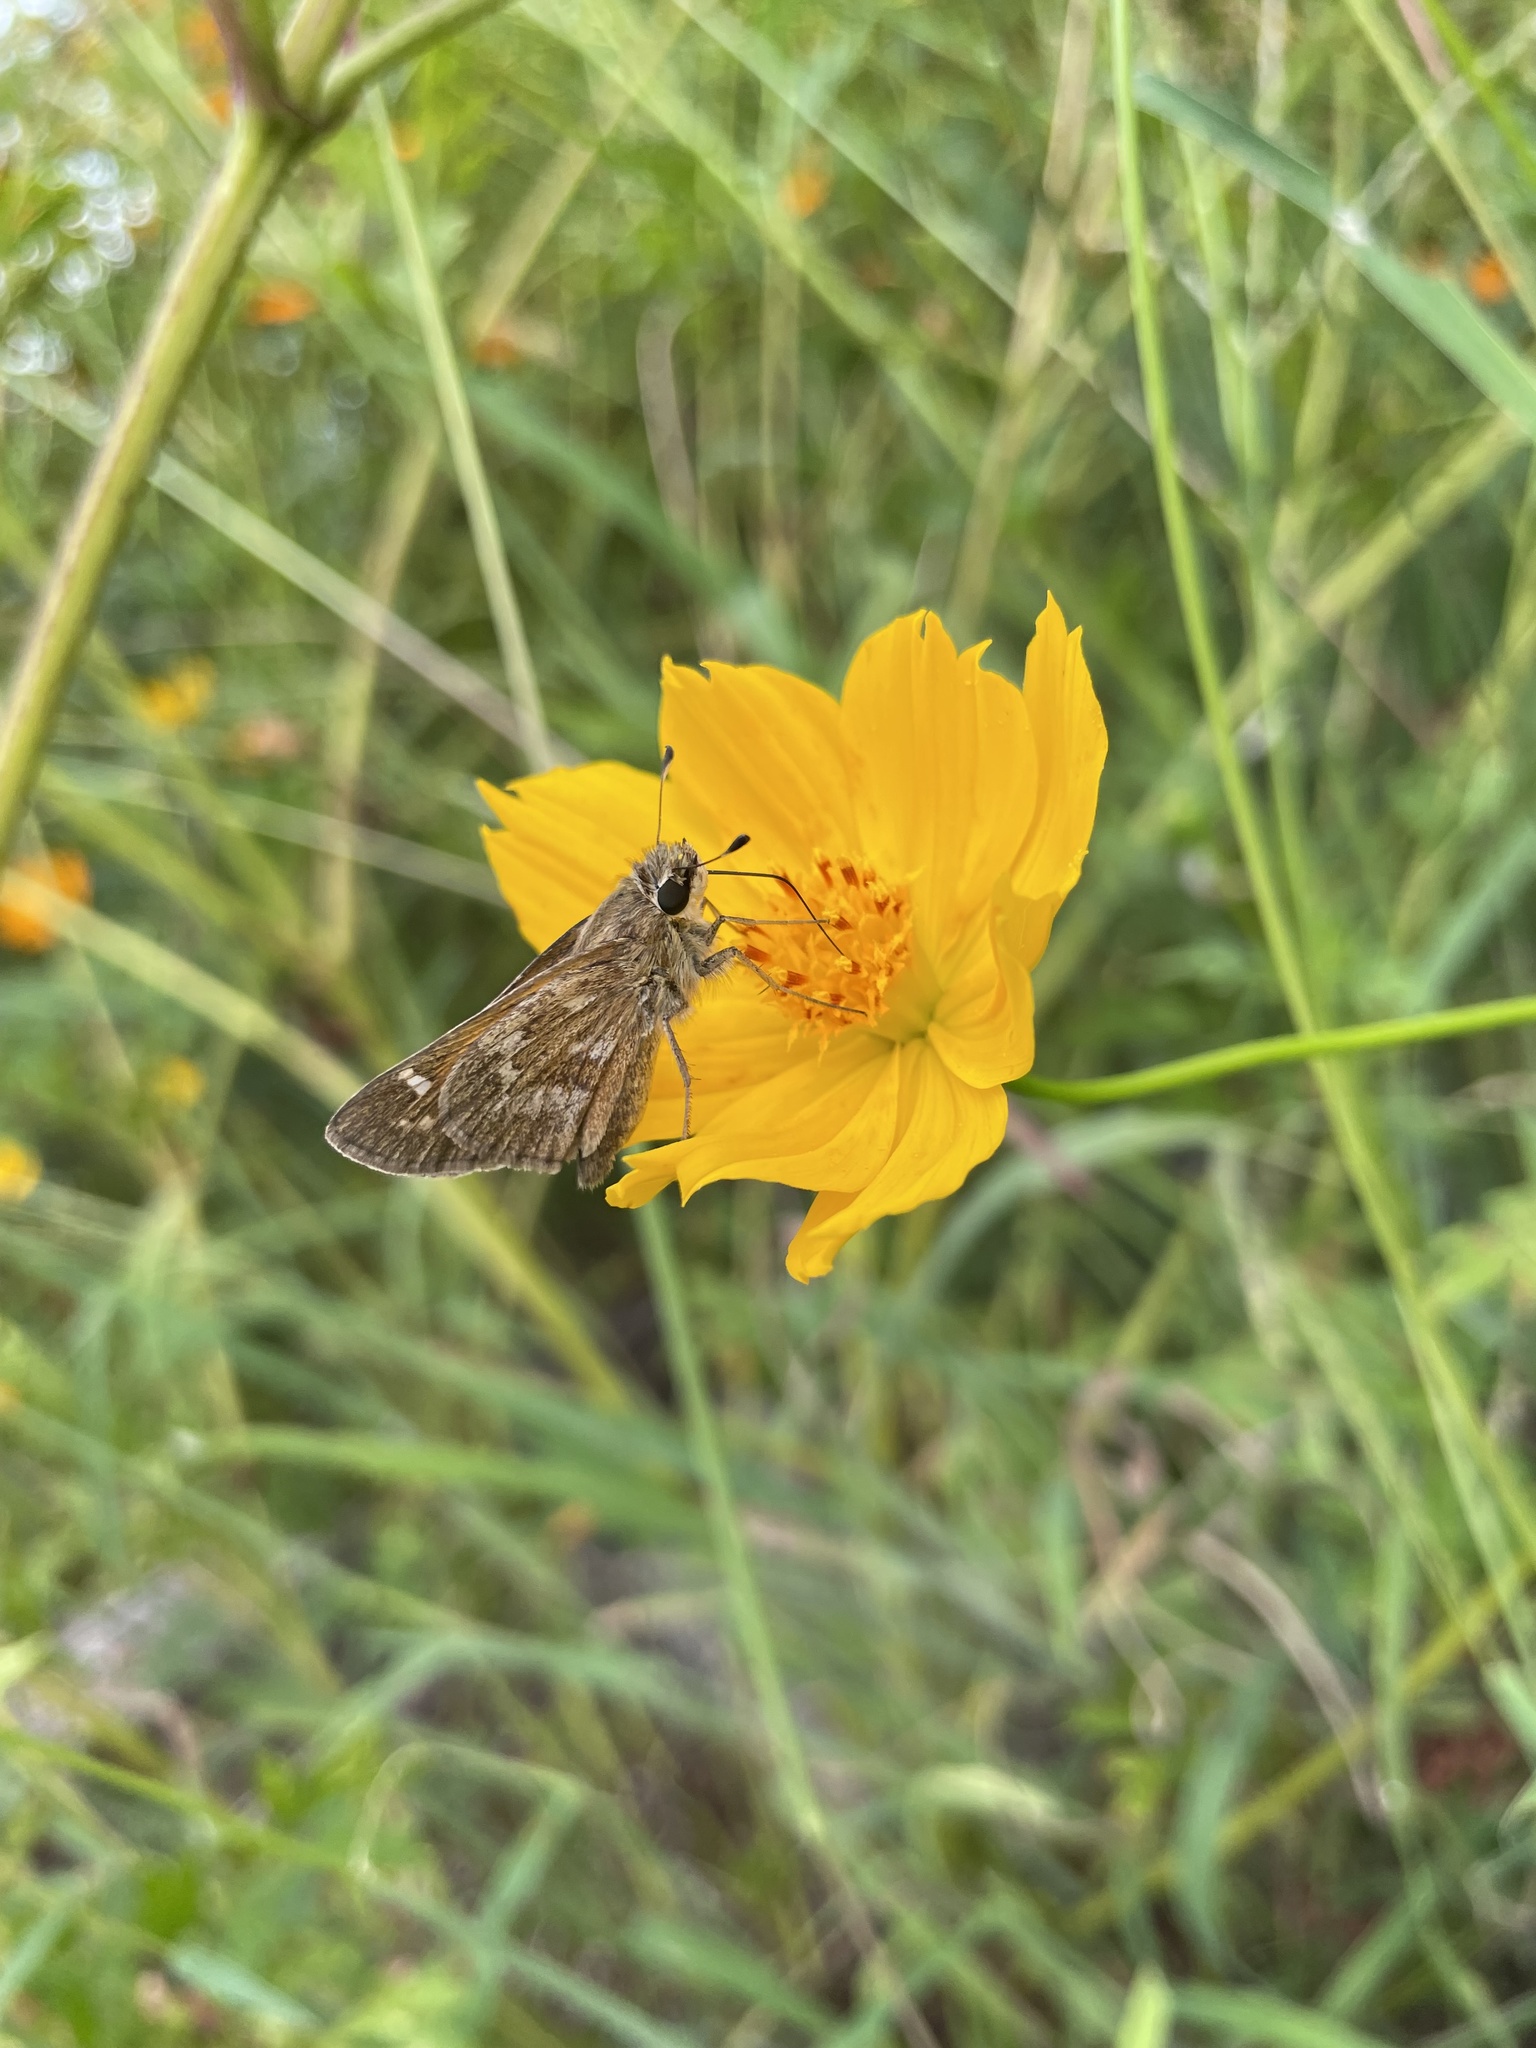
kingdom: Animalia
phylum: Arthropoda
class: Insecta
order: Lepidoptera
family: Hesperiidae
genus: Atalopedes
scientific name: Atalopedes
